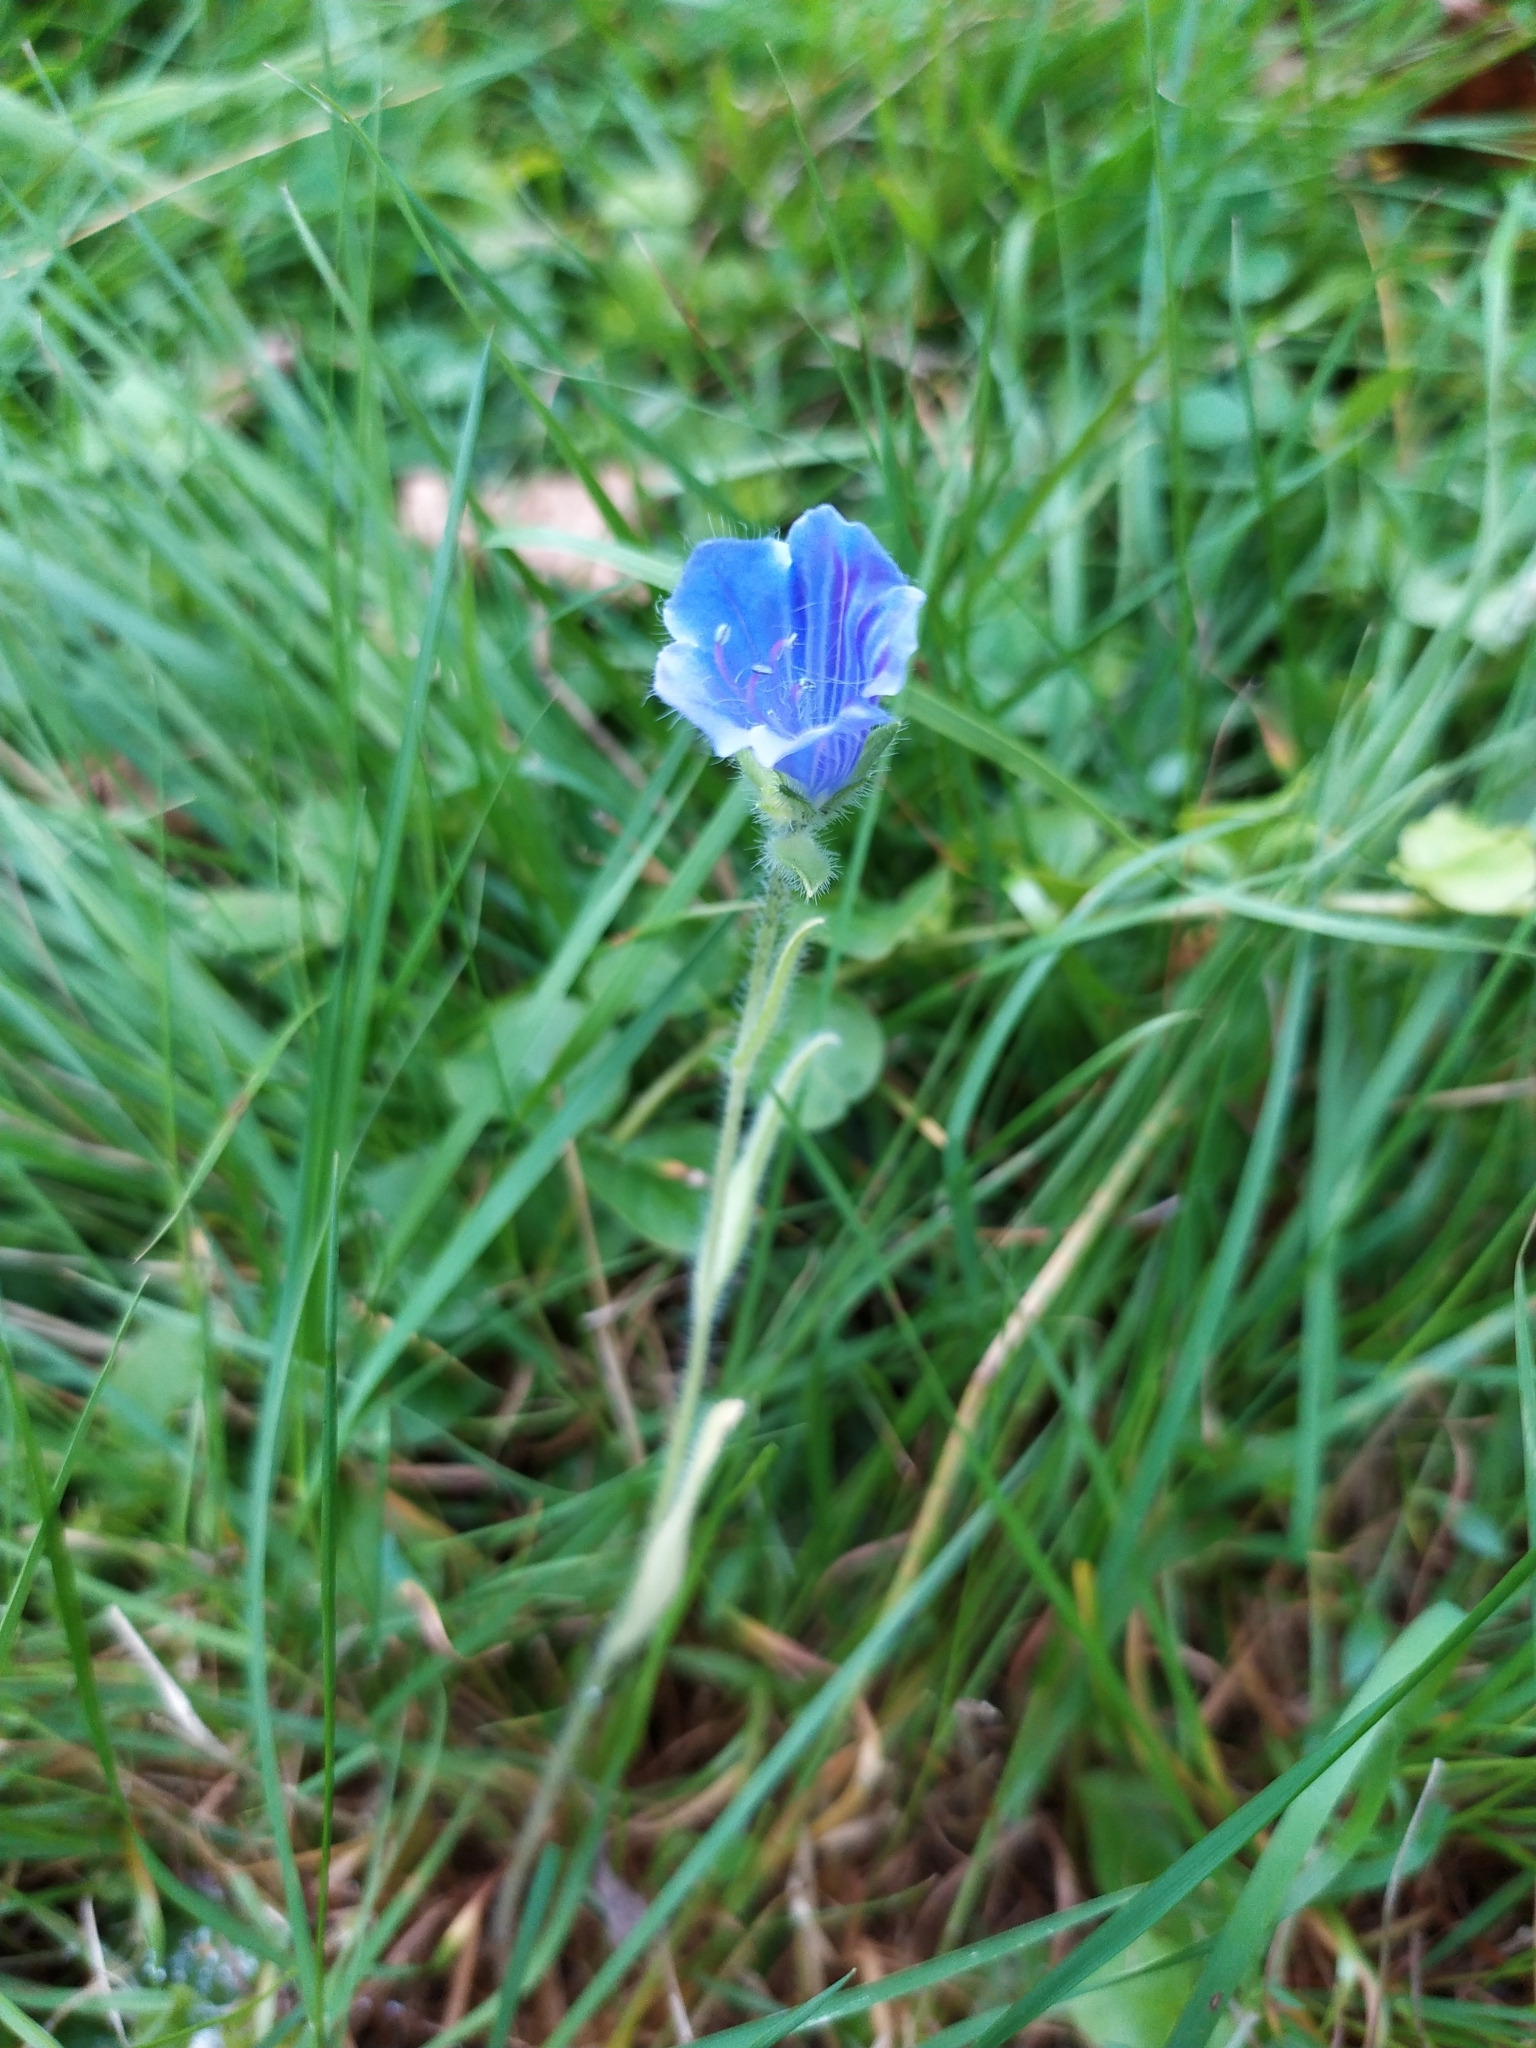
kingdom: Plantae
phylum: Tracheophyta
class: Magnoliopsida
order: Boraginales
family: Boraginaceae
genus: Echium
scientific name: Echium plantagineum
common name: Purple viper's-bugloss
